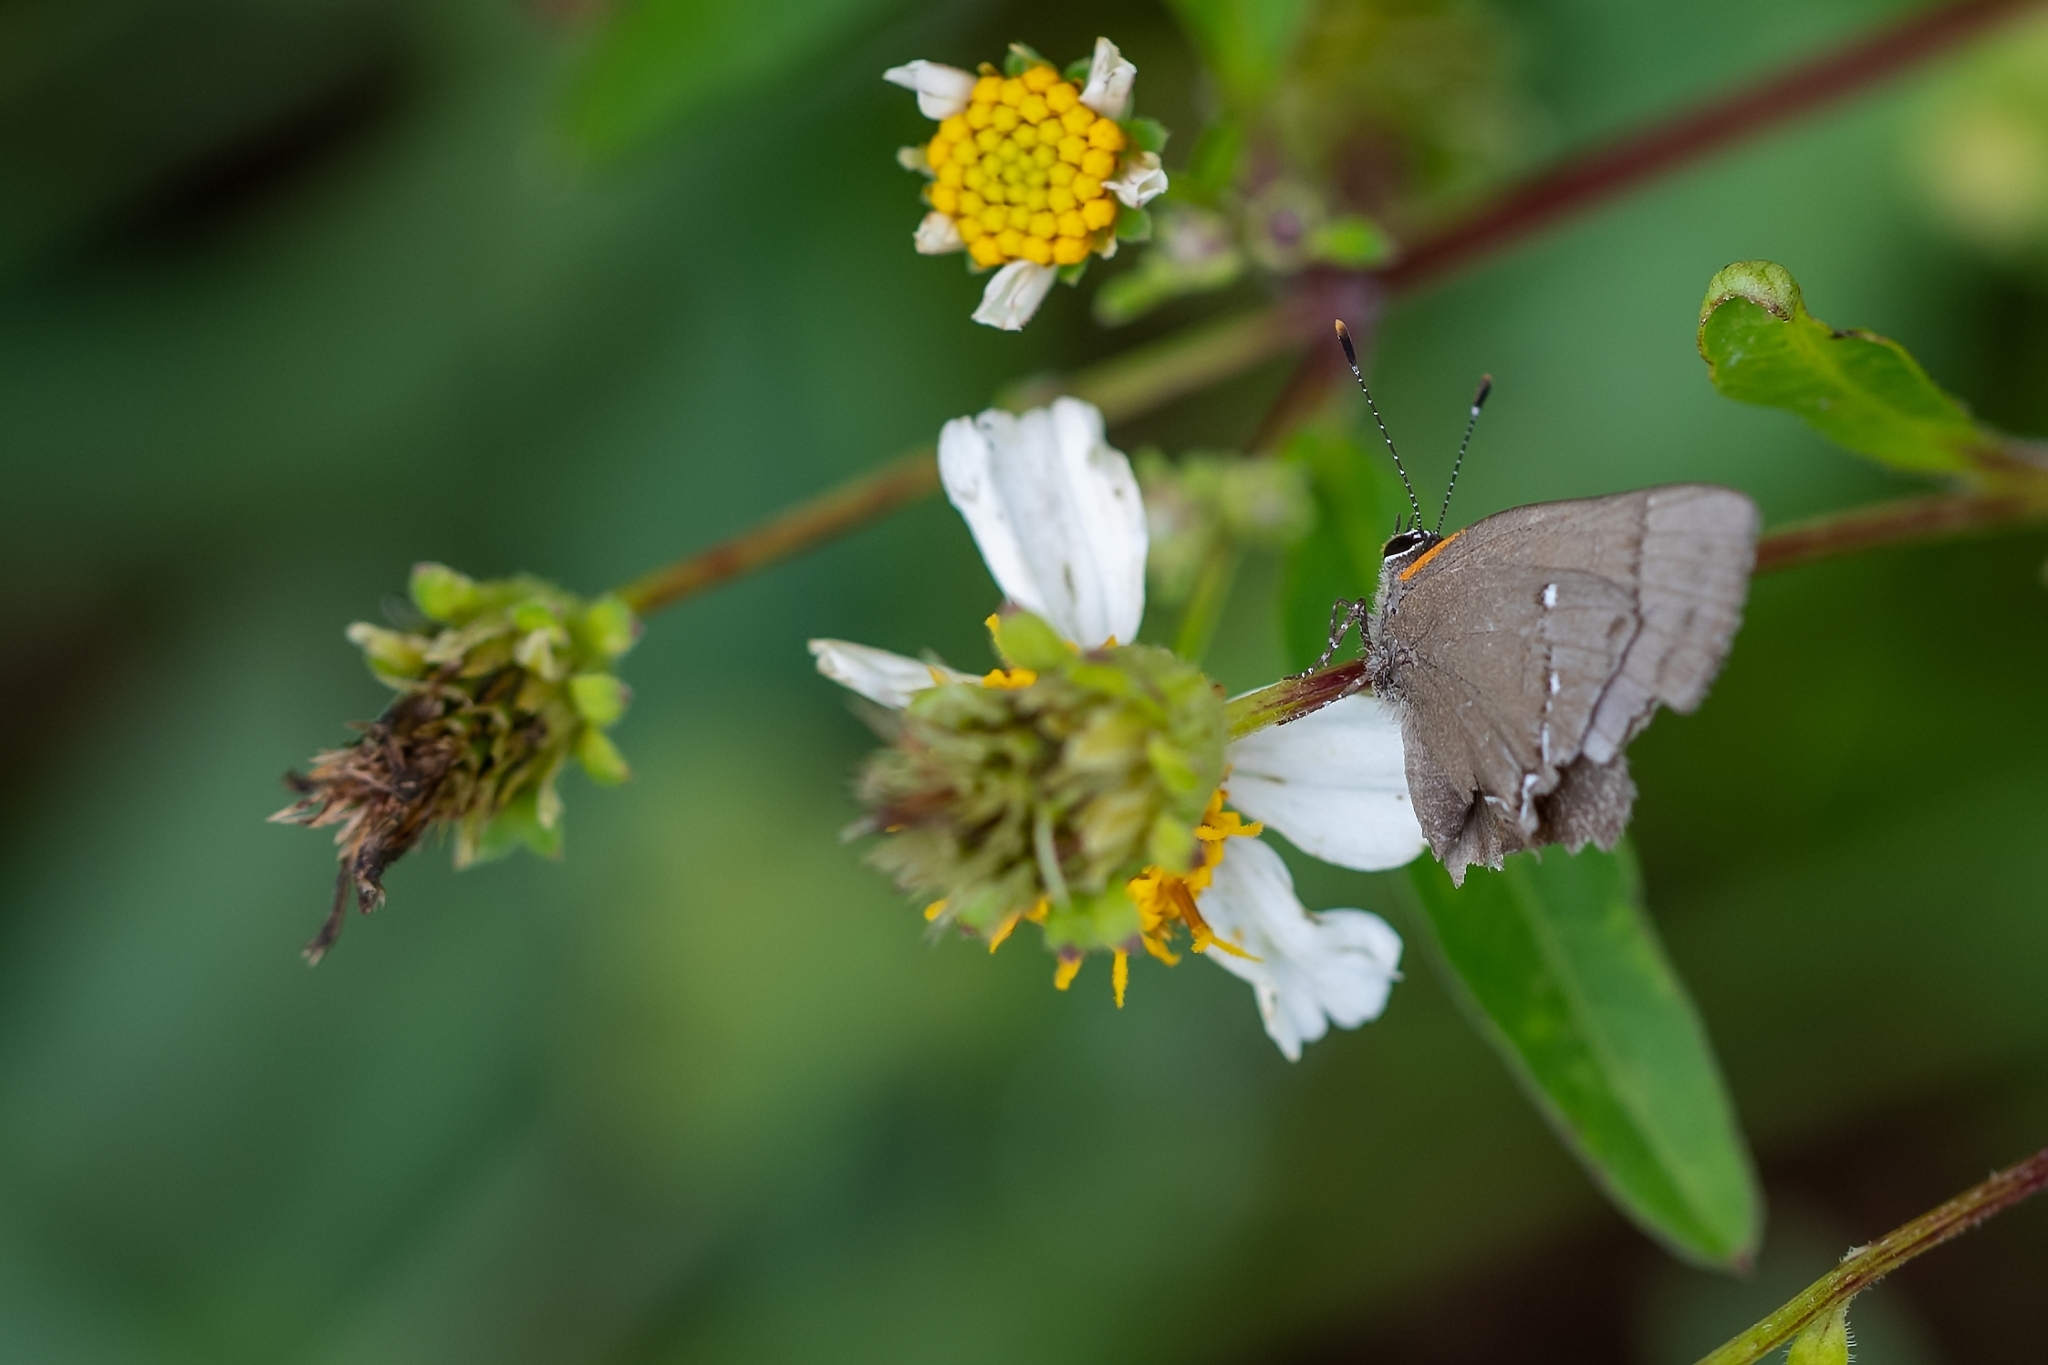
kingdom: Animalia
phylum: Arthropoda
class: Insecta
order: Lepidoptera
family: Lycaenidae
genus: Thecla
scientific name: Thecla angelia
